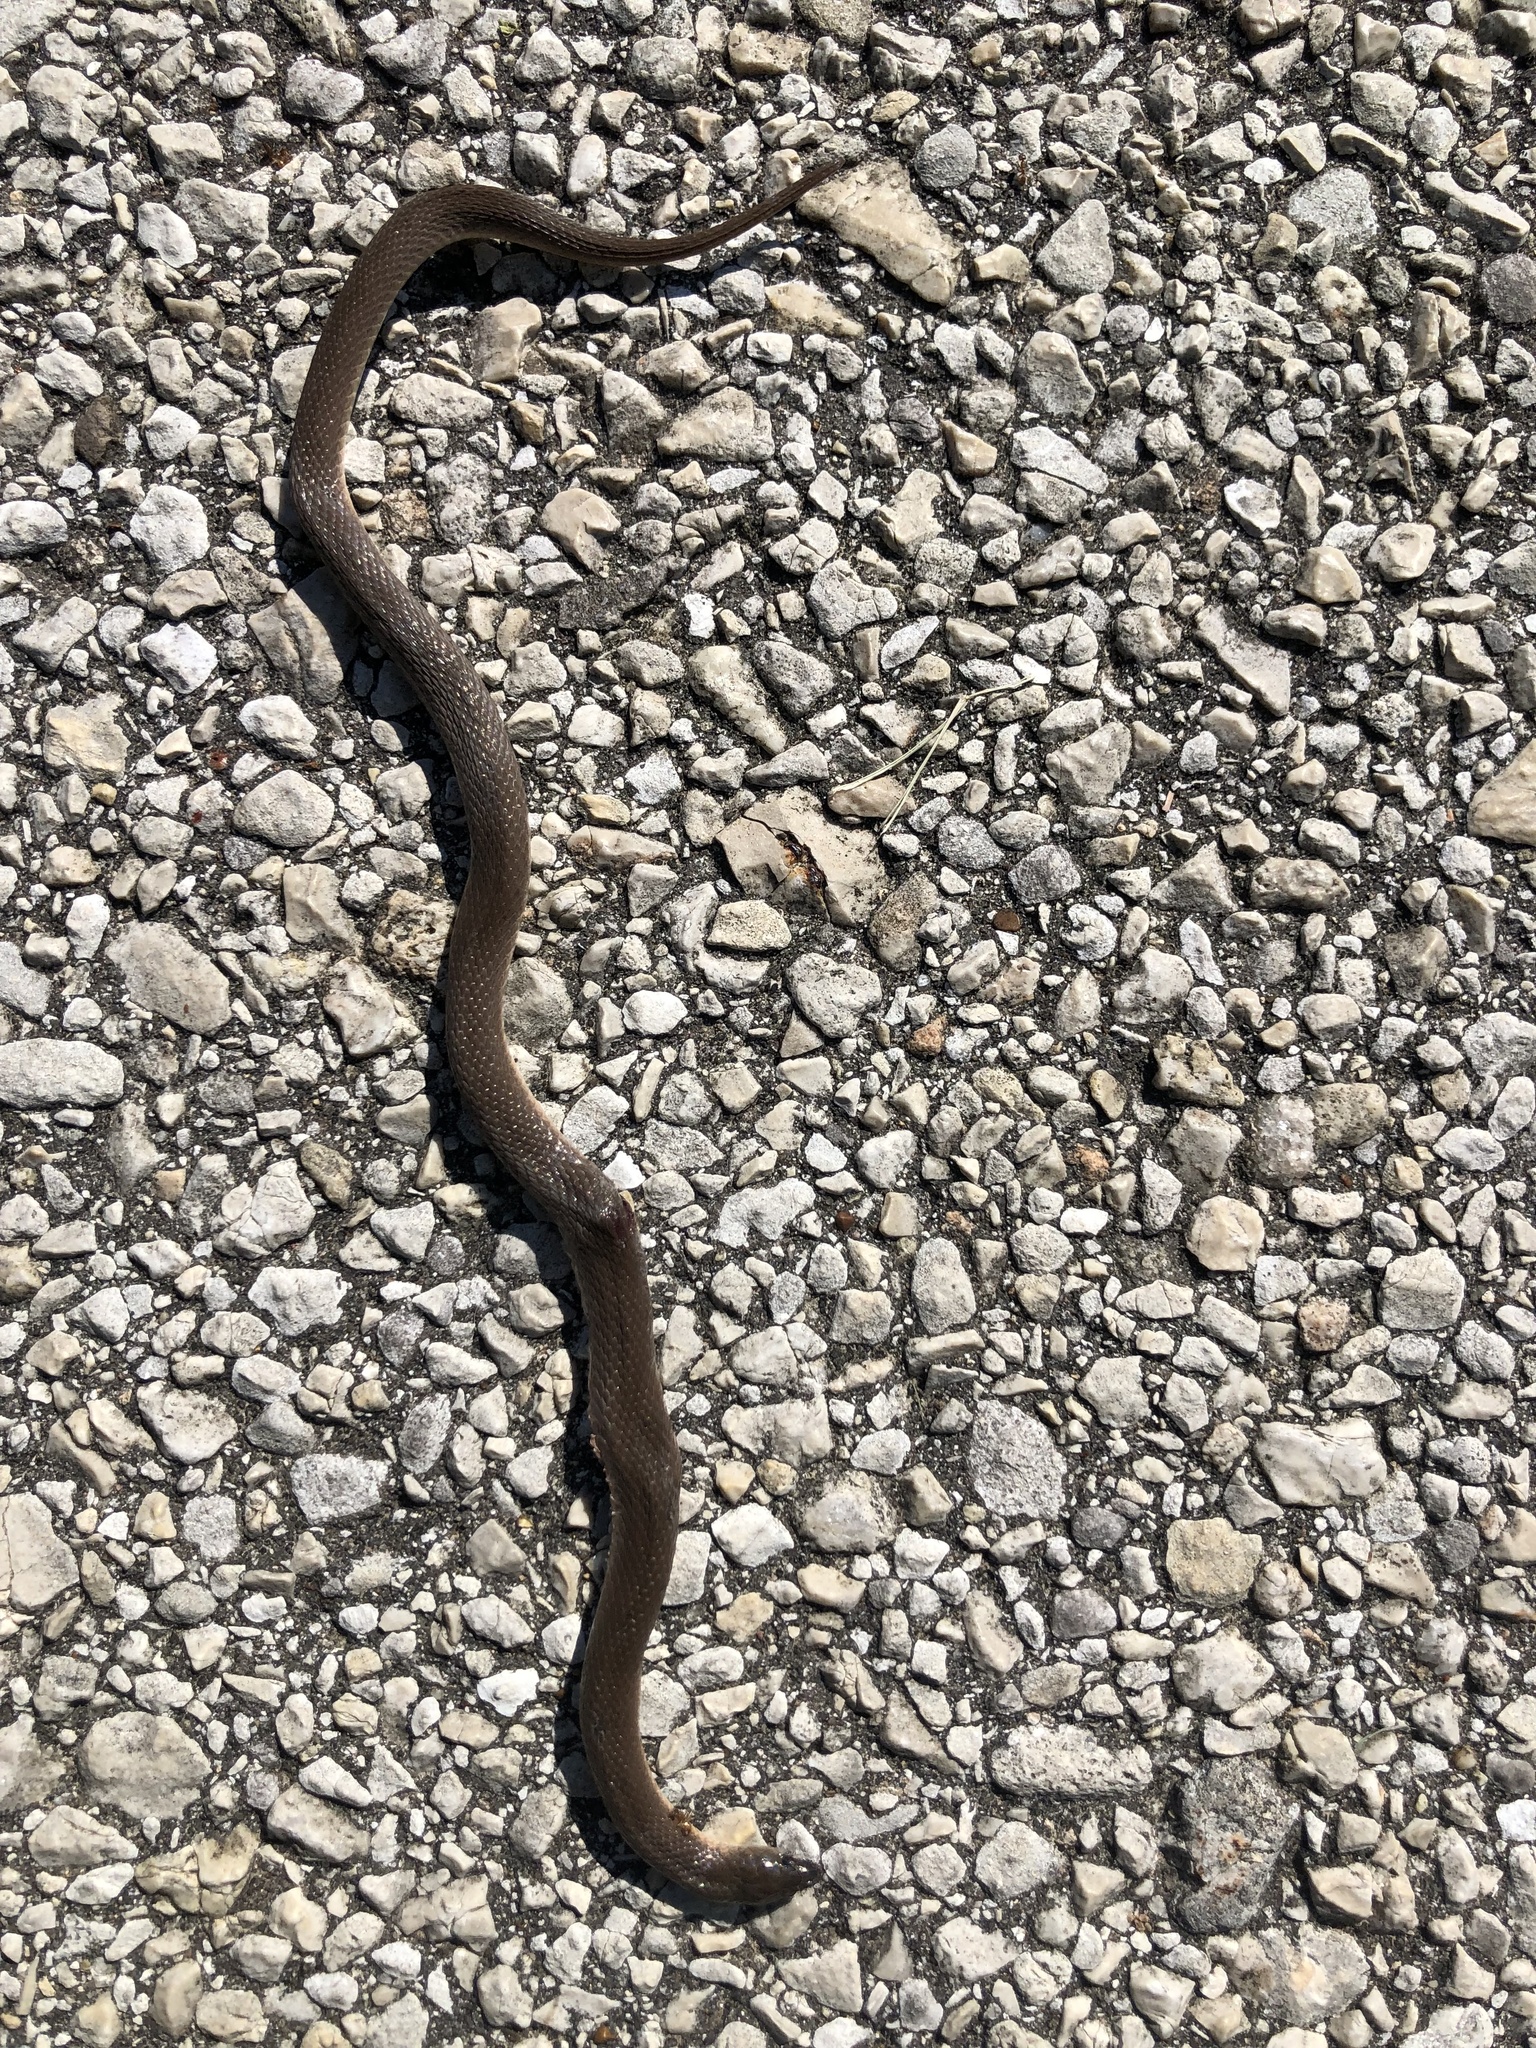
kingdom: Animalia
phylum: Chordata
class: Squamata
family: Colubridae
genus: Haldea
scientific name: Haldea striatula
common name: Rough earth snake
